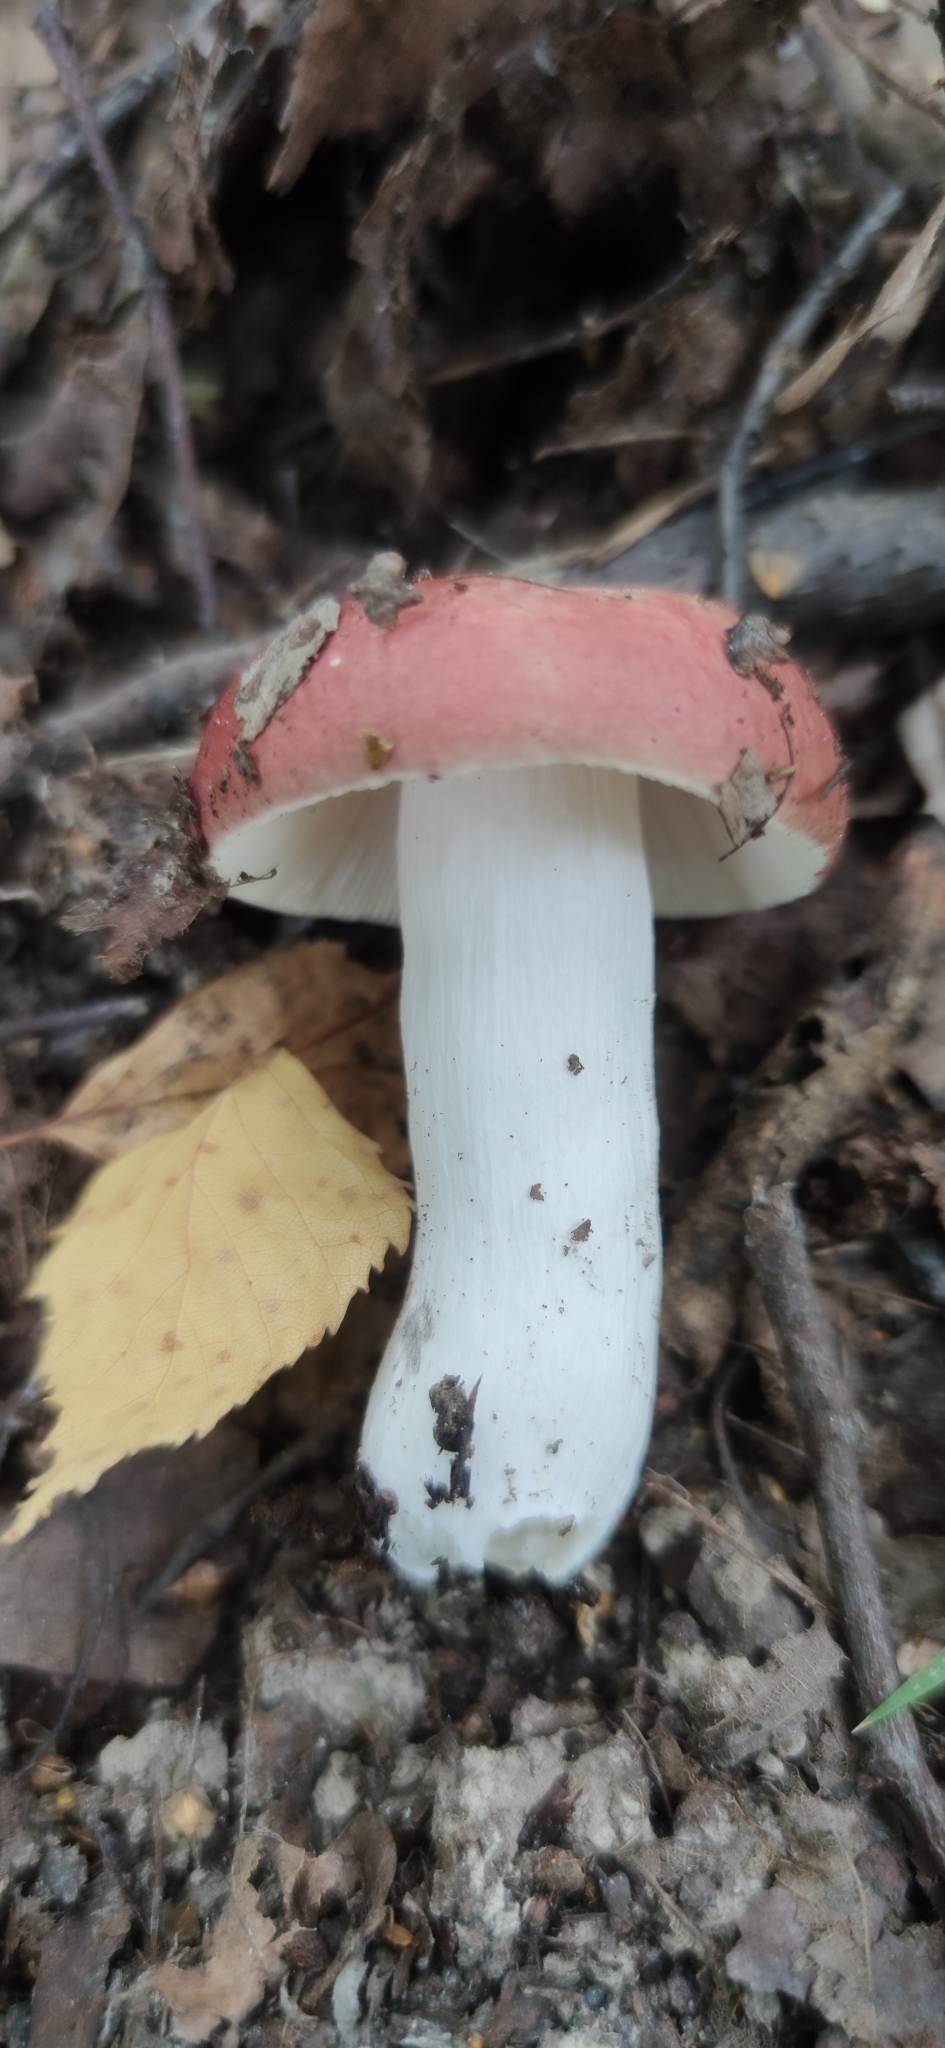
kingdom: Fungi
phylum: Basidiomycota
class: Agaricomycetes
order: Russulales
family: Russulaceae
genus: Russula
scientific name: Russula vesca
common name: Bare-toothed russula
